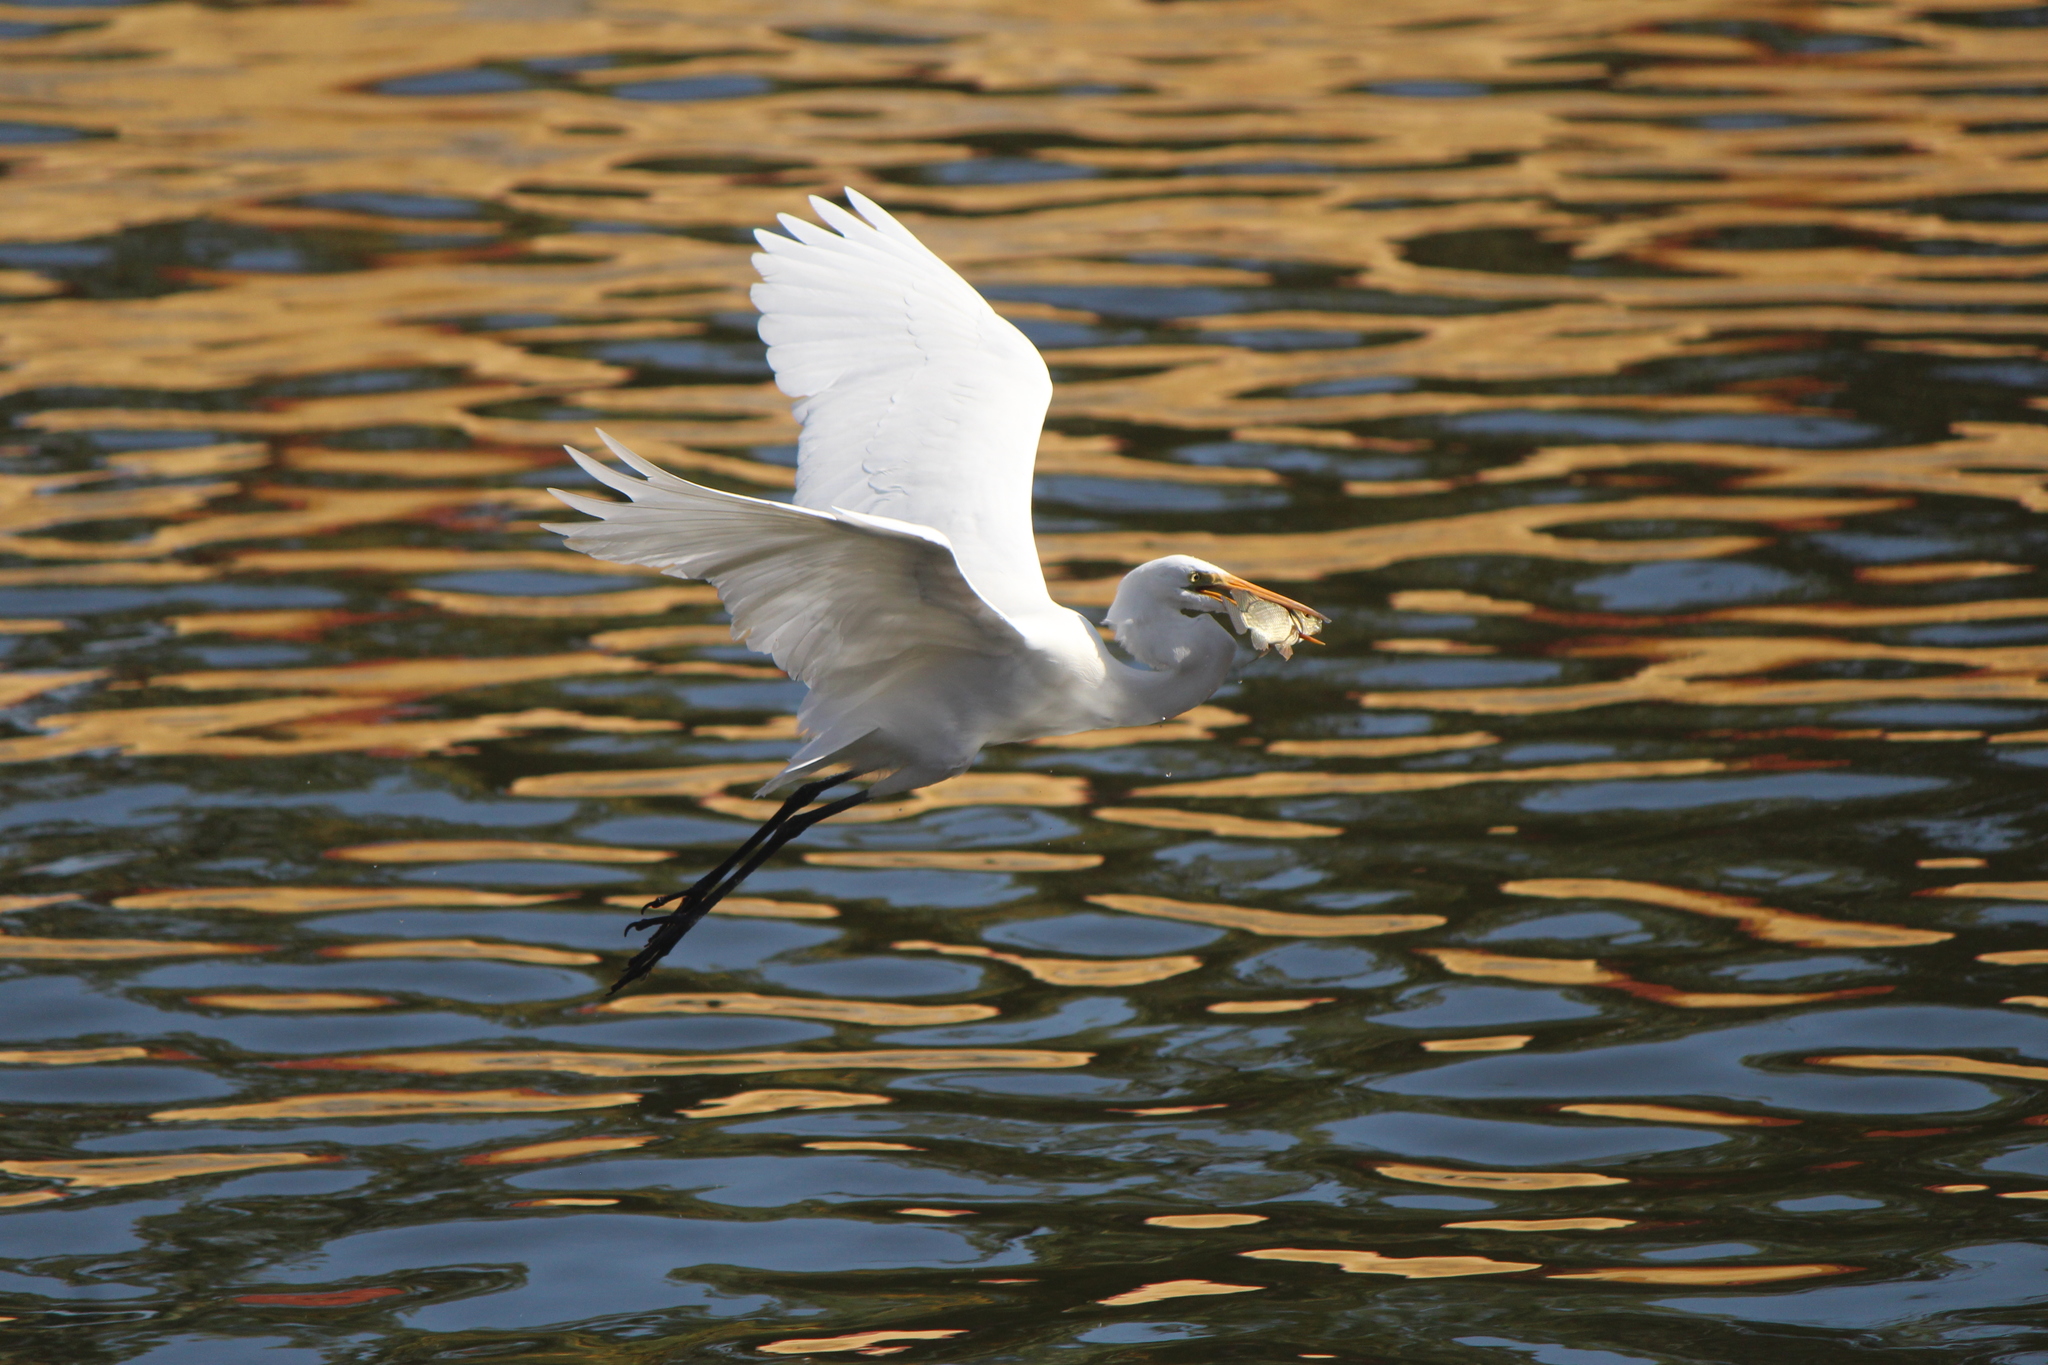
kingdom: Animalia
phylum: Chordata
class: Aves
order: Pelecaniformes
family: Ardeidae
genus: Ardea
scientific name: Ardea alba
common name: Great egret
